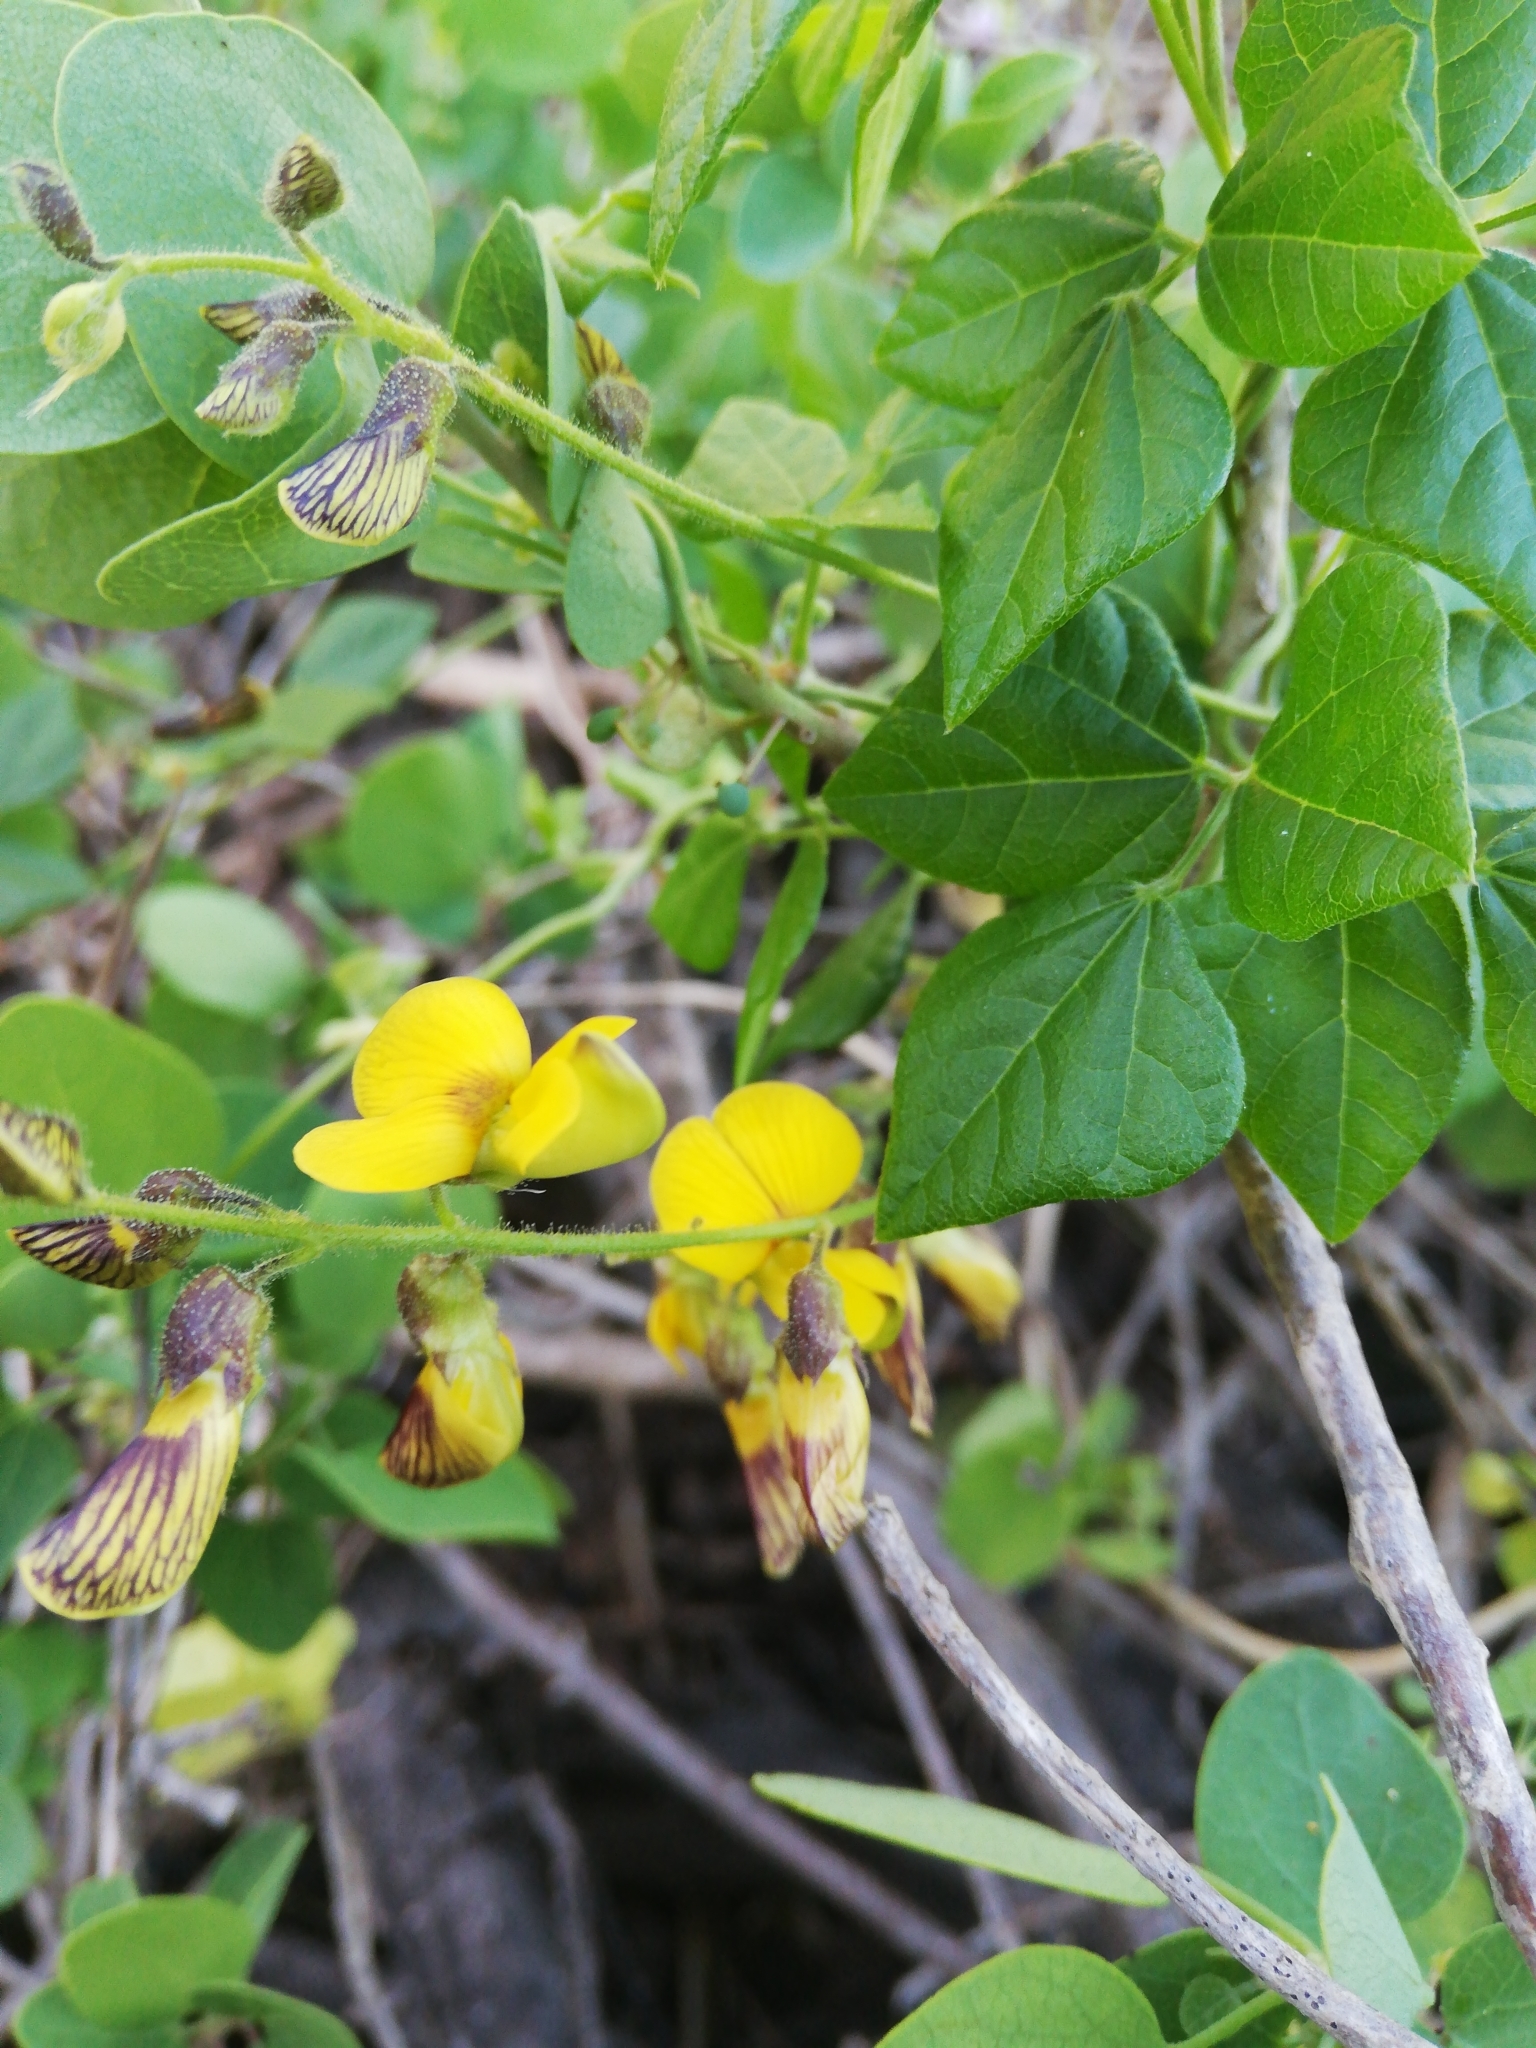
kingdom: Plantae
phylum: Tracheophyta
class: Magnoliopsida
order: Fabales
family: Fabaceae
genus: Rhynchosia
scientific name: Rhynchosia caribaea
